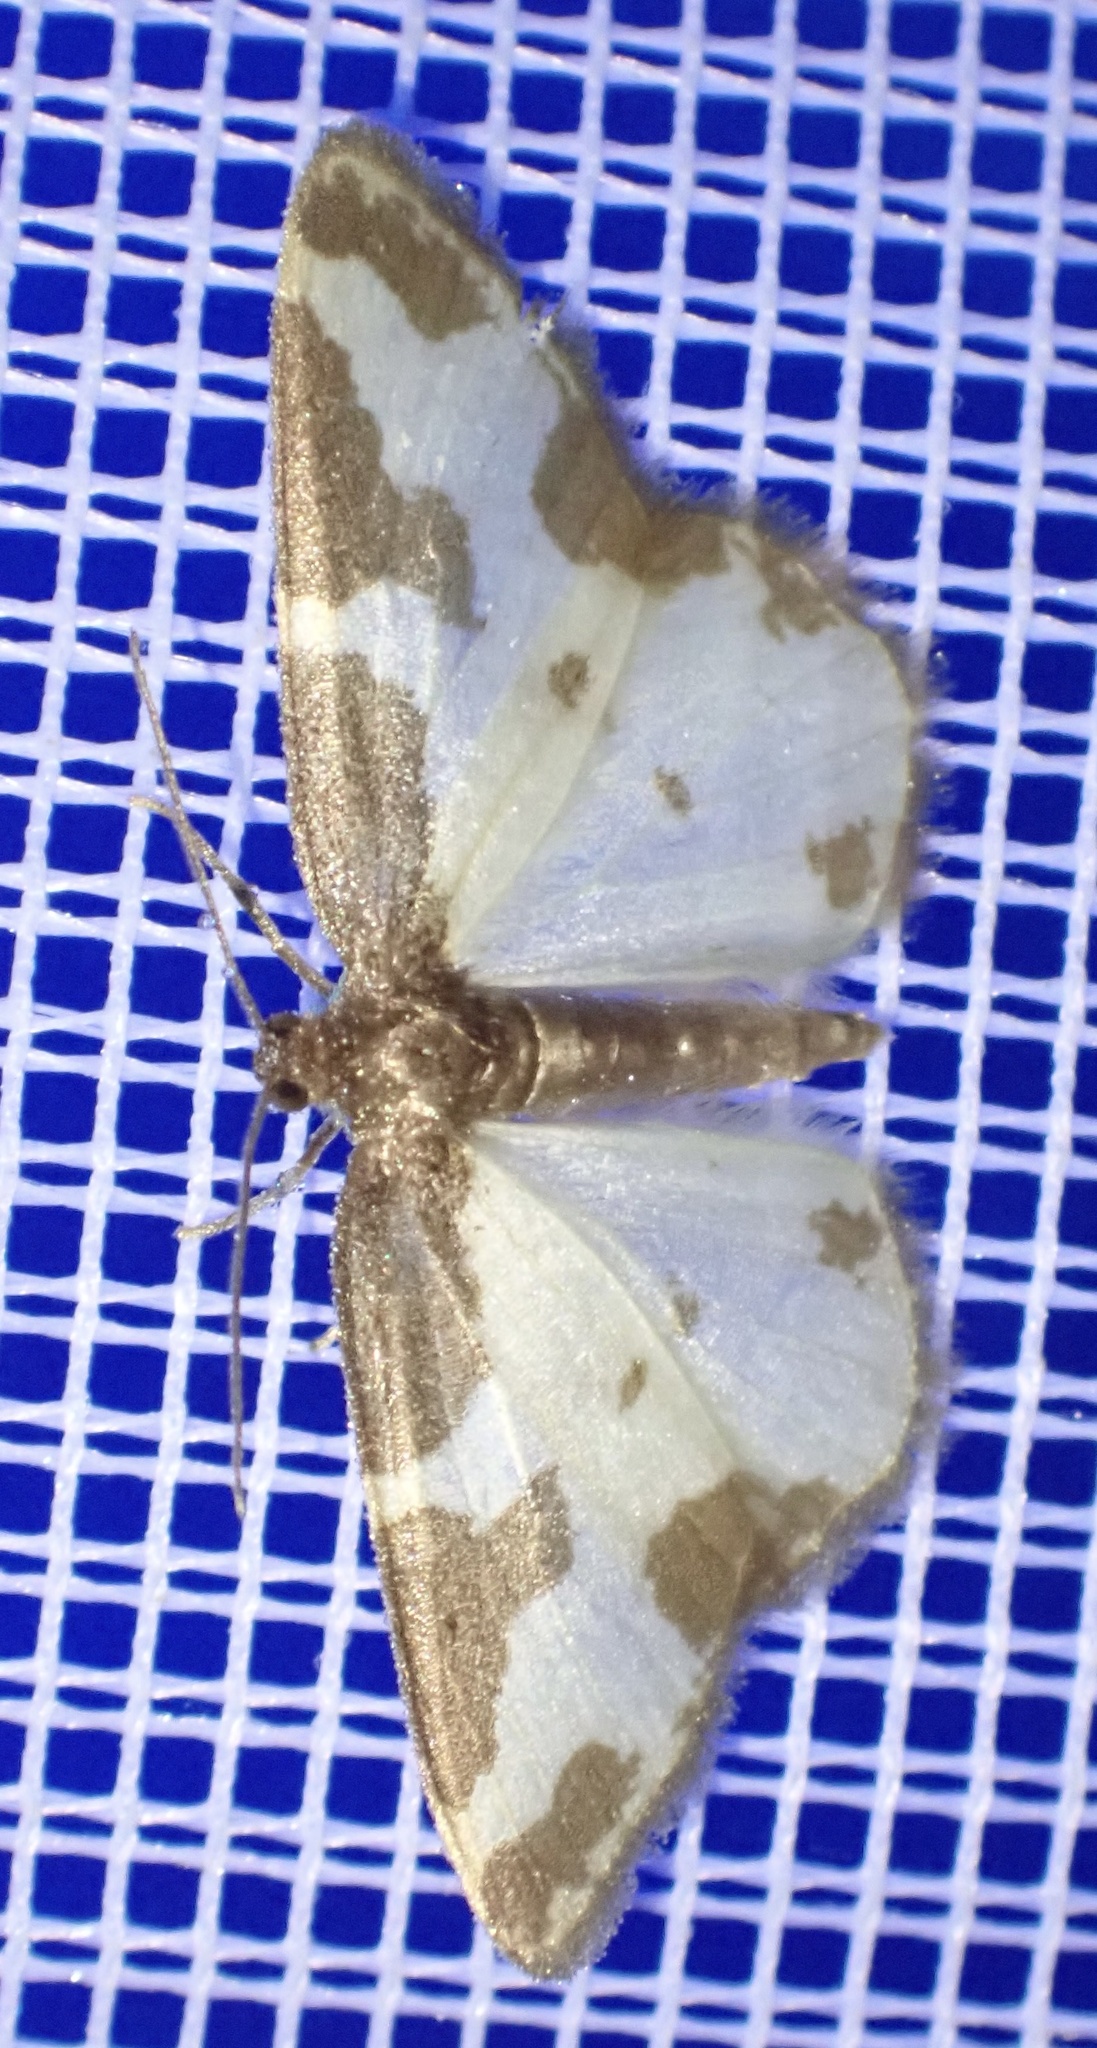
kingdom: Animalia
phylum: Arthropoda
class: Insecta
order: Lepidoptera
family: Geometridae
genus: Lomaspilis
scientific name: Lomaspilis marginata
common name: Clouded border
